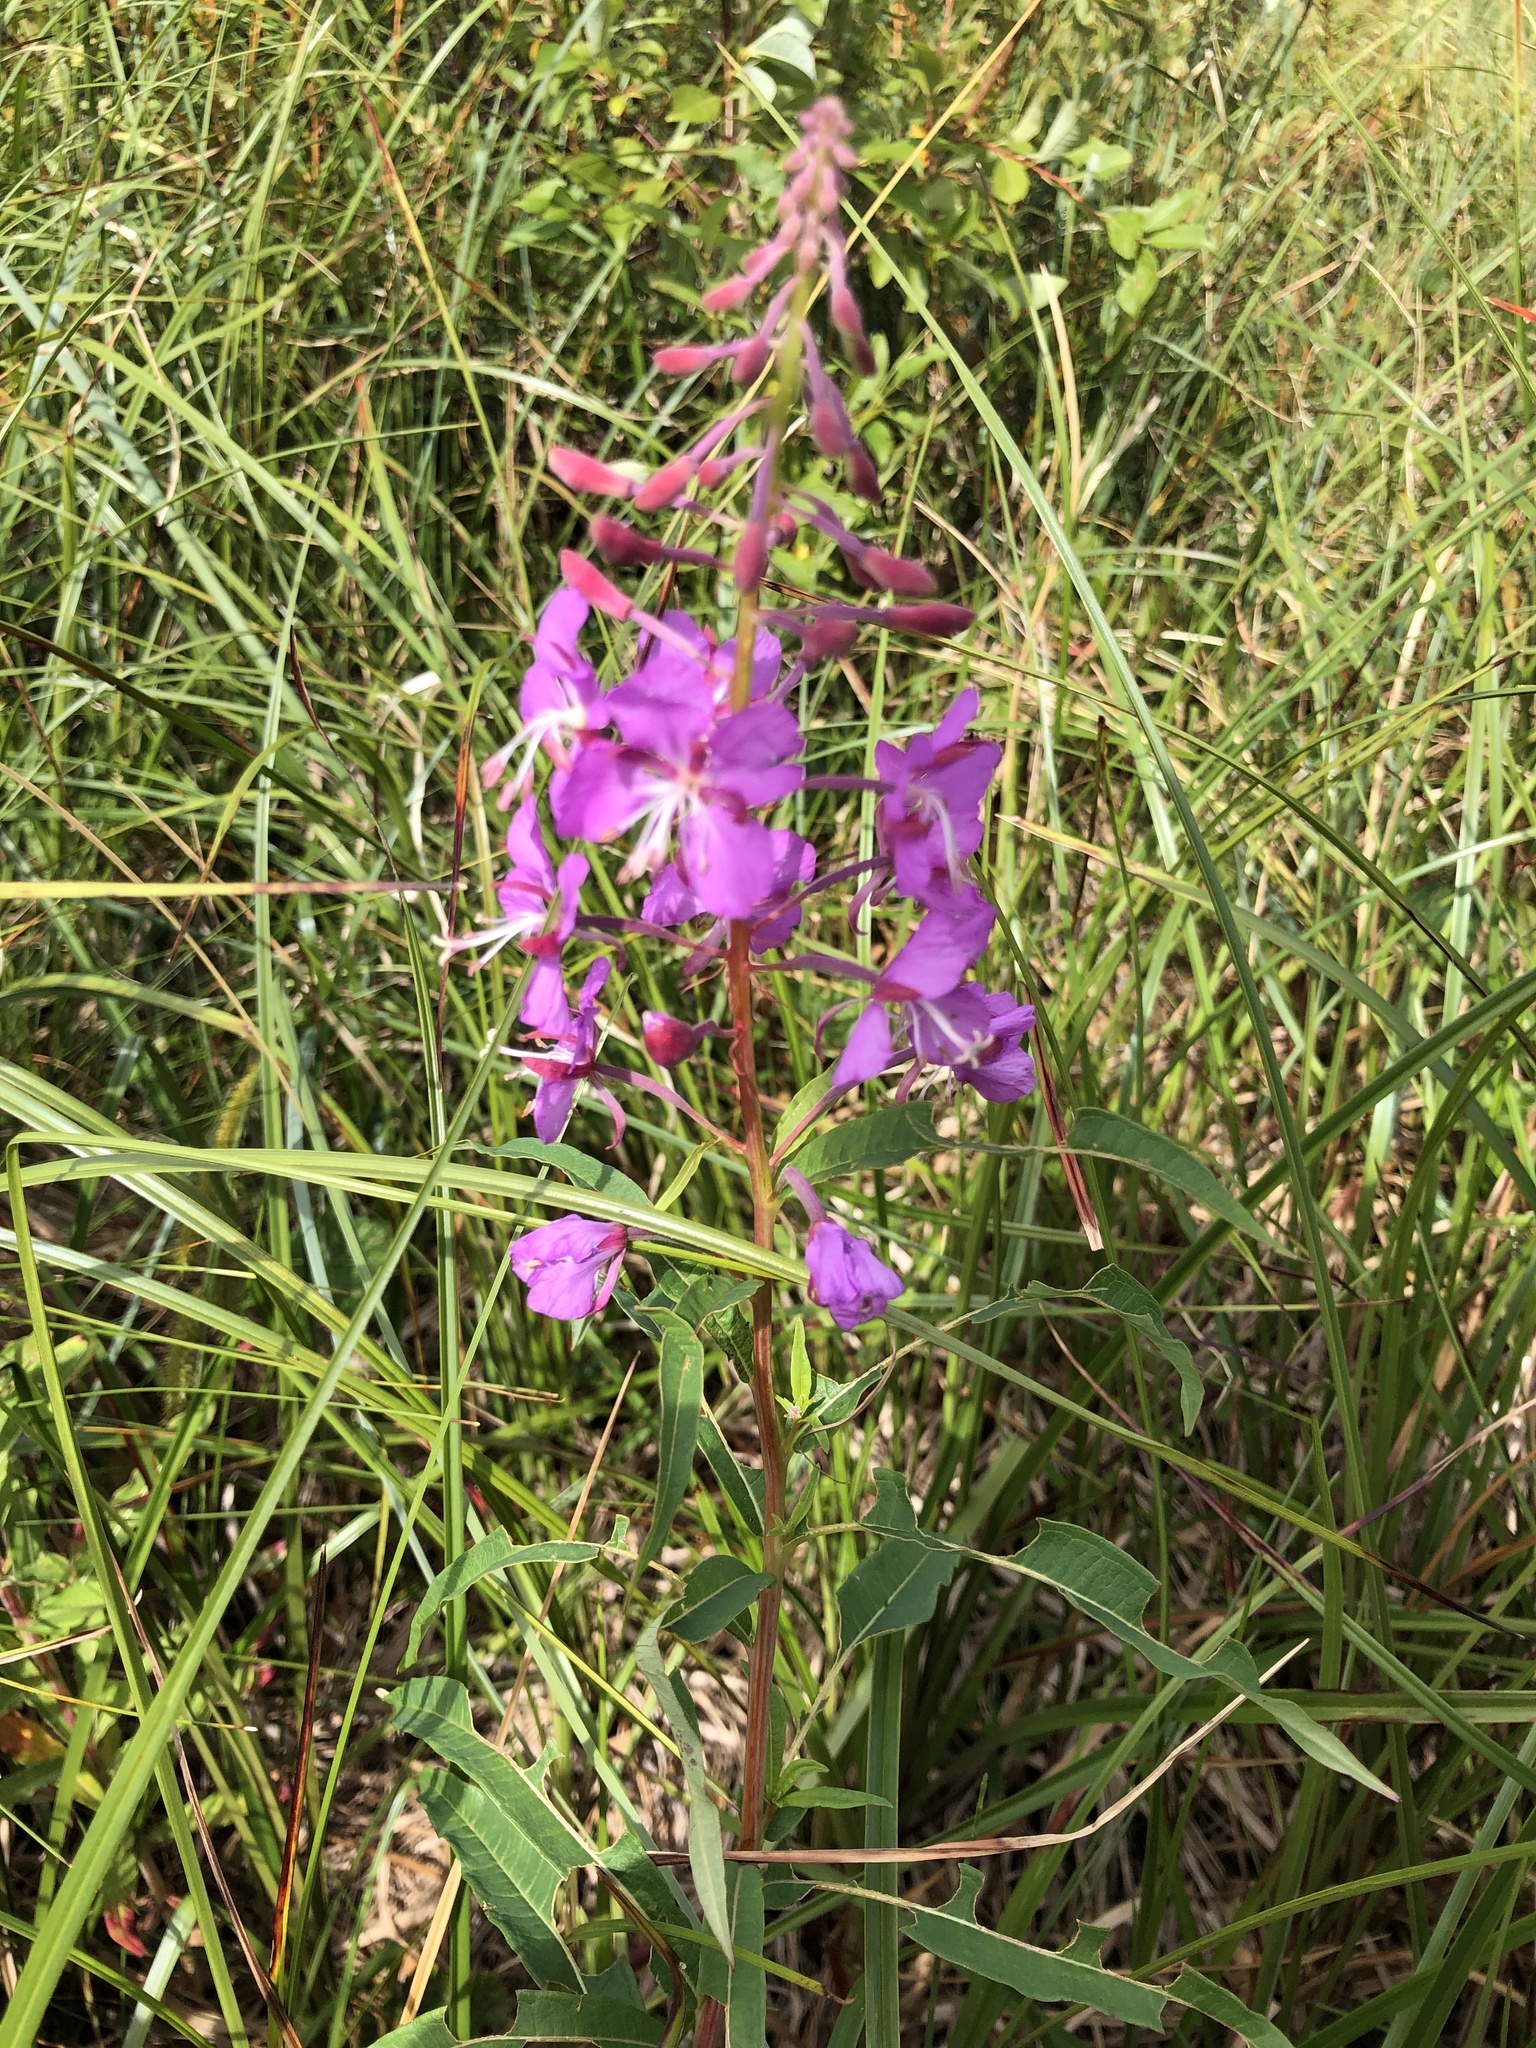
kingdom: Plantae
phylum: Tracheophyta
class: Magnoliopsida
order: Myrtales
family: Onagraceae
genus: Chamaenerion
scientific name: Chamaenerion angustifolium
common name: Fireweed
